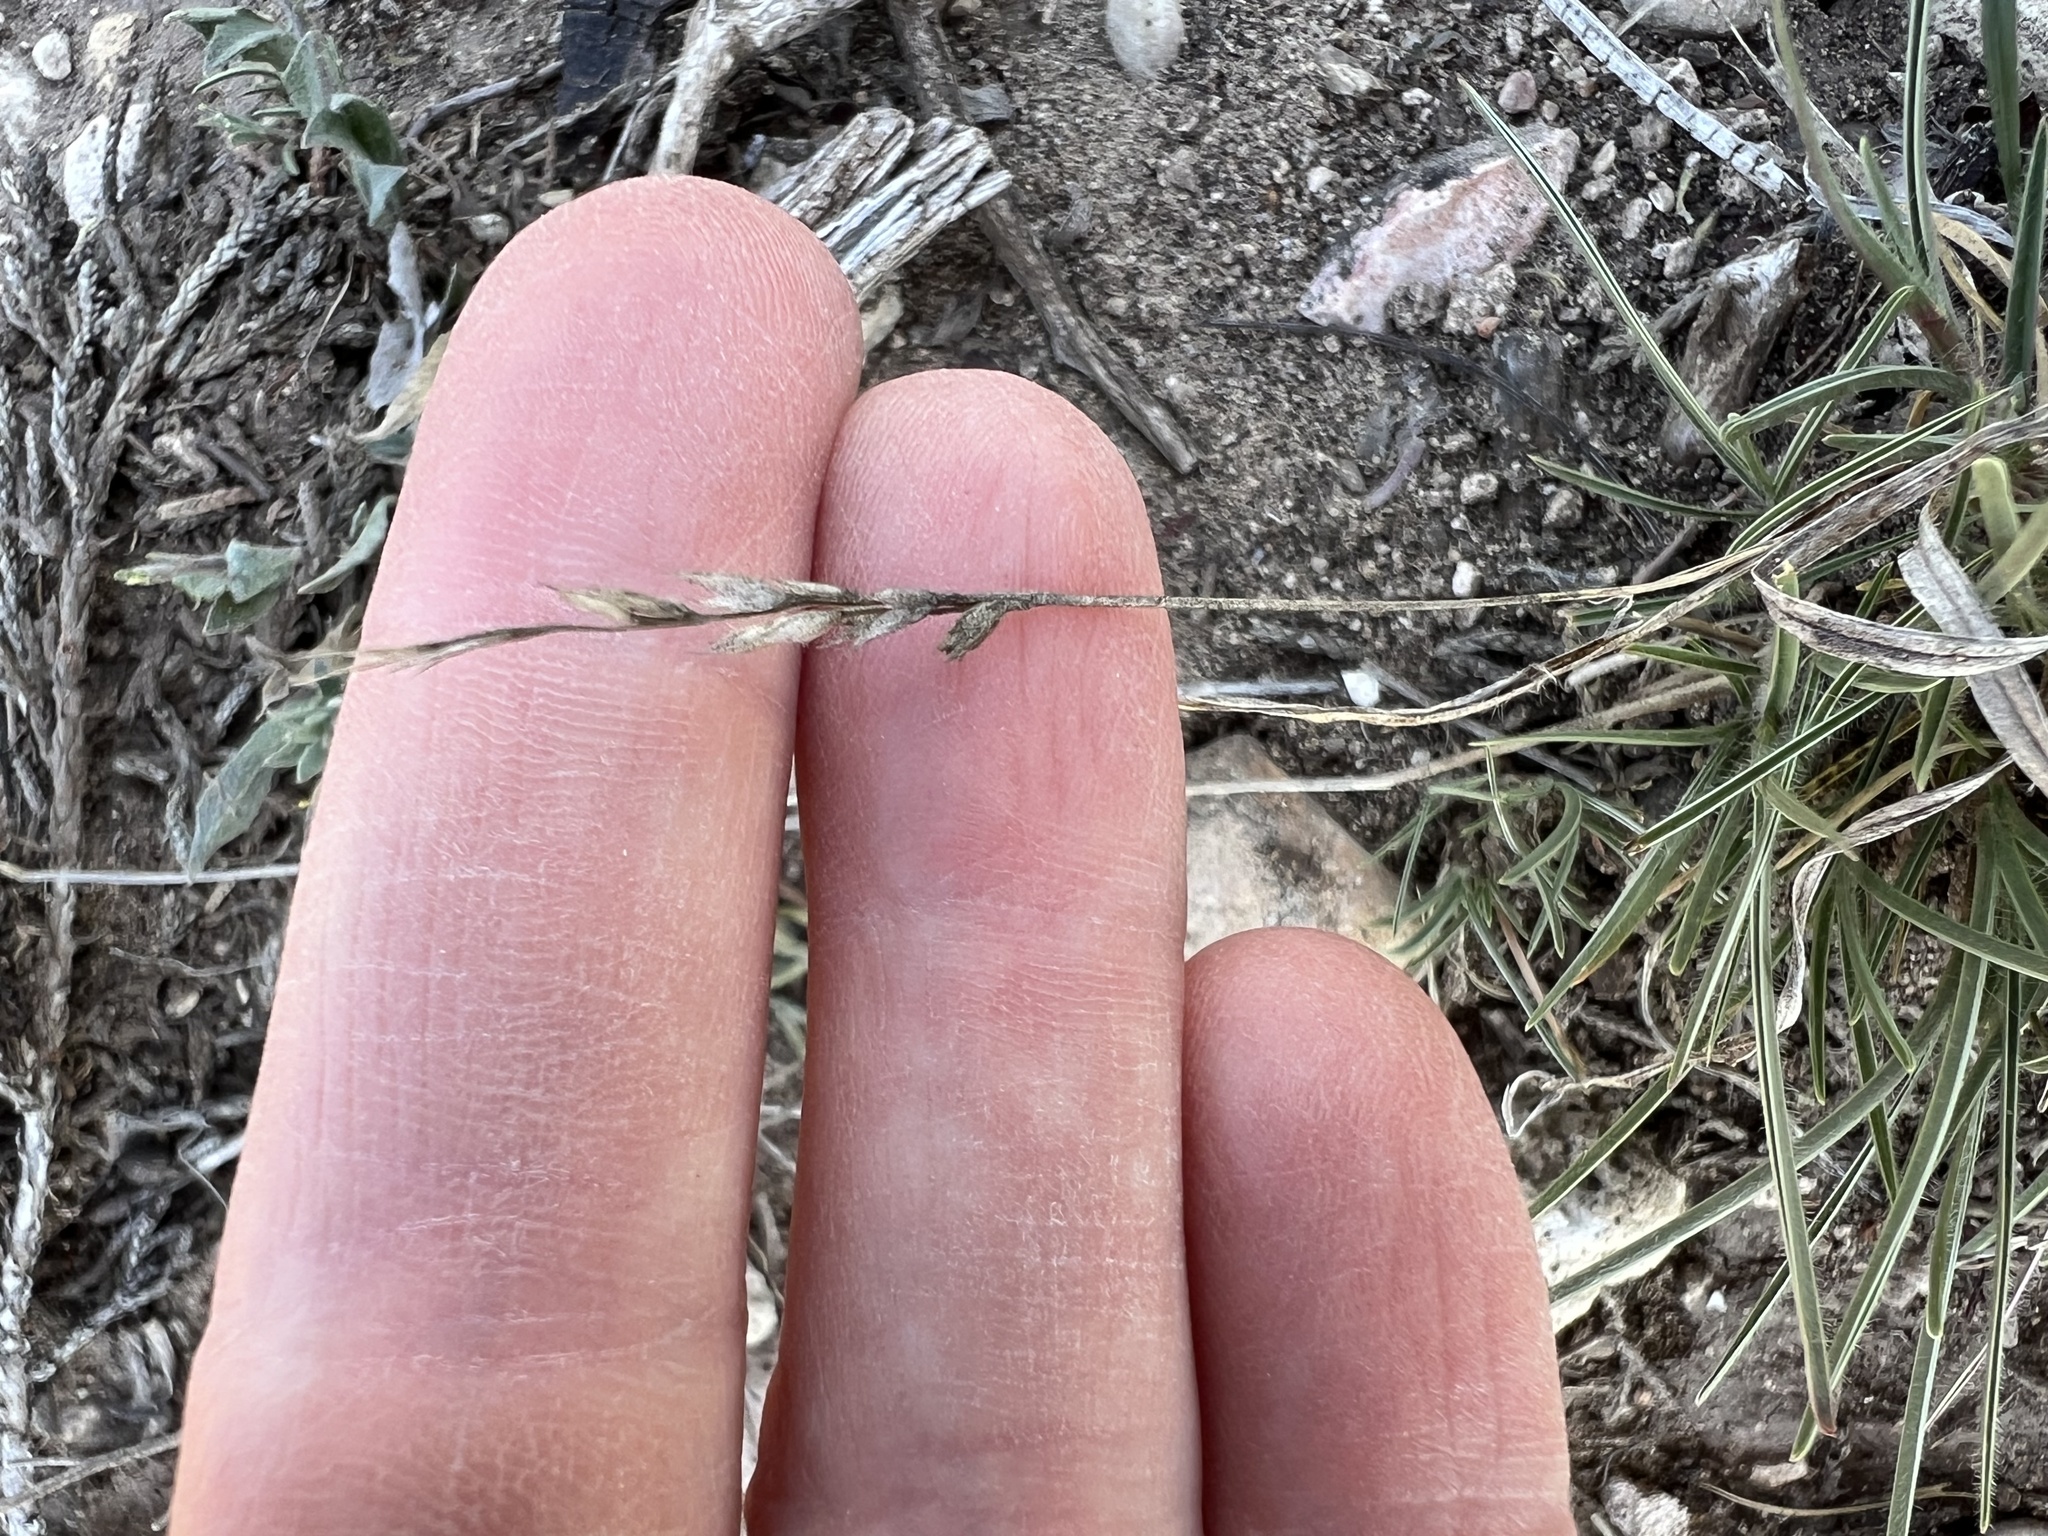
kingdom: Plantae
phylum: Tracheophyta
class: Liliopsida
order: Poales
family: Poaceae
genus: Erioneuron
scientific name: Erioneuron pilosum
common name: Hairy woolly grass
